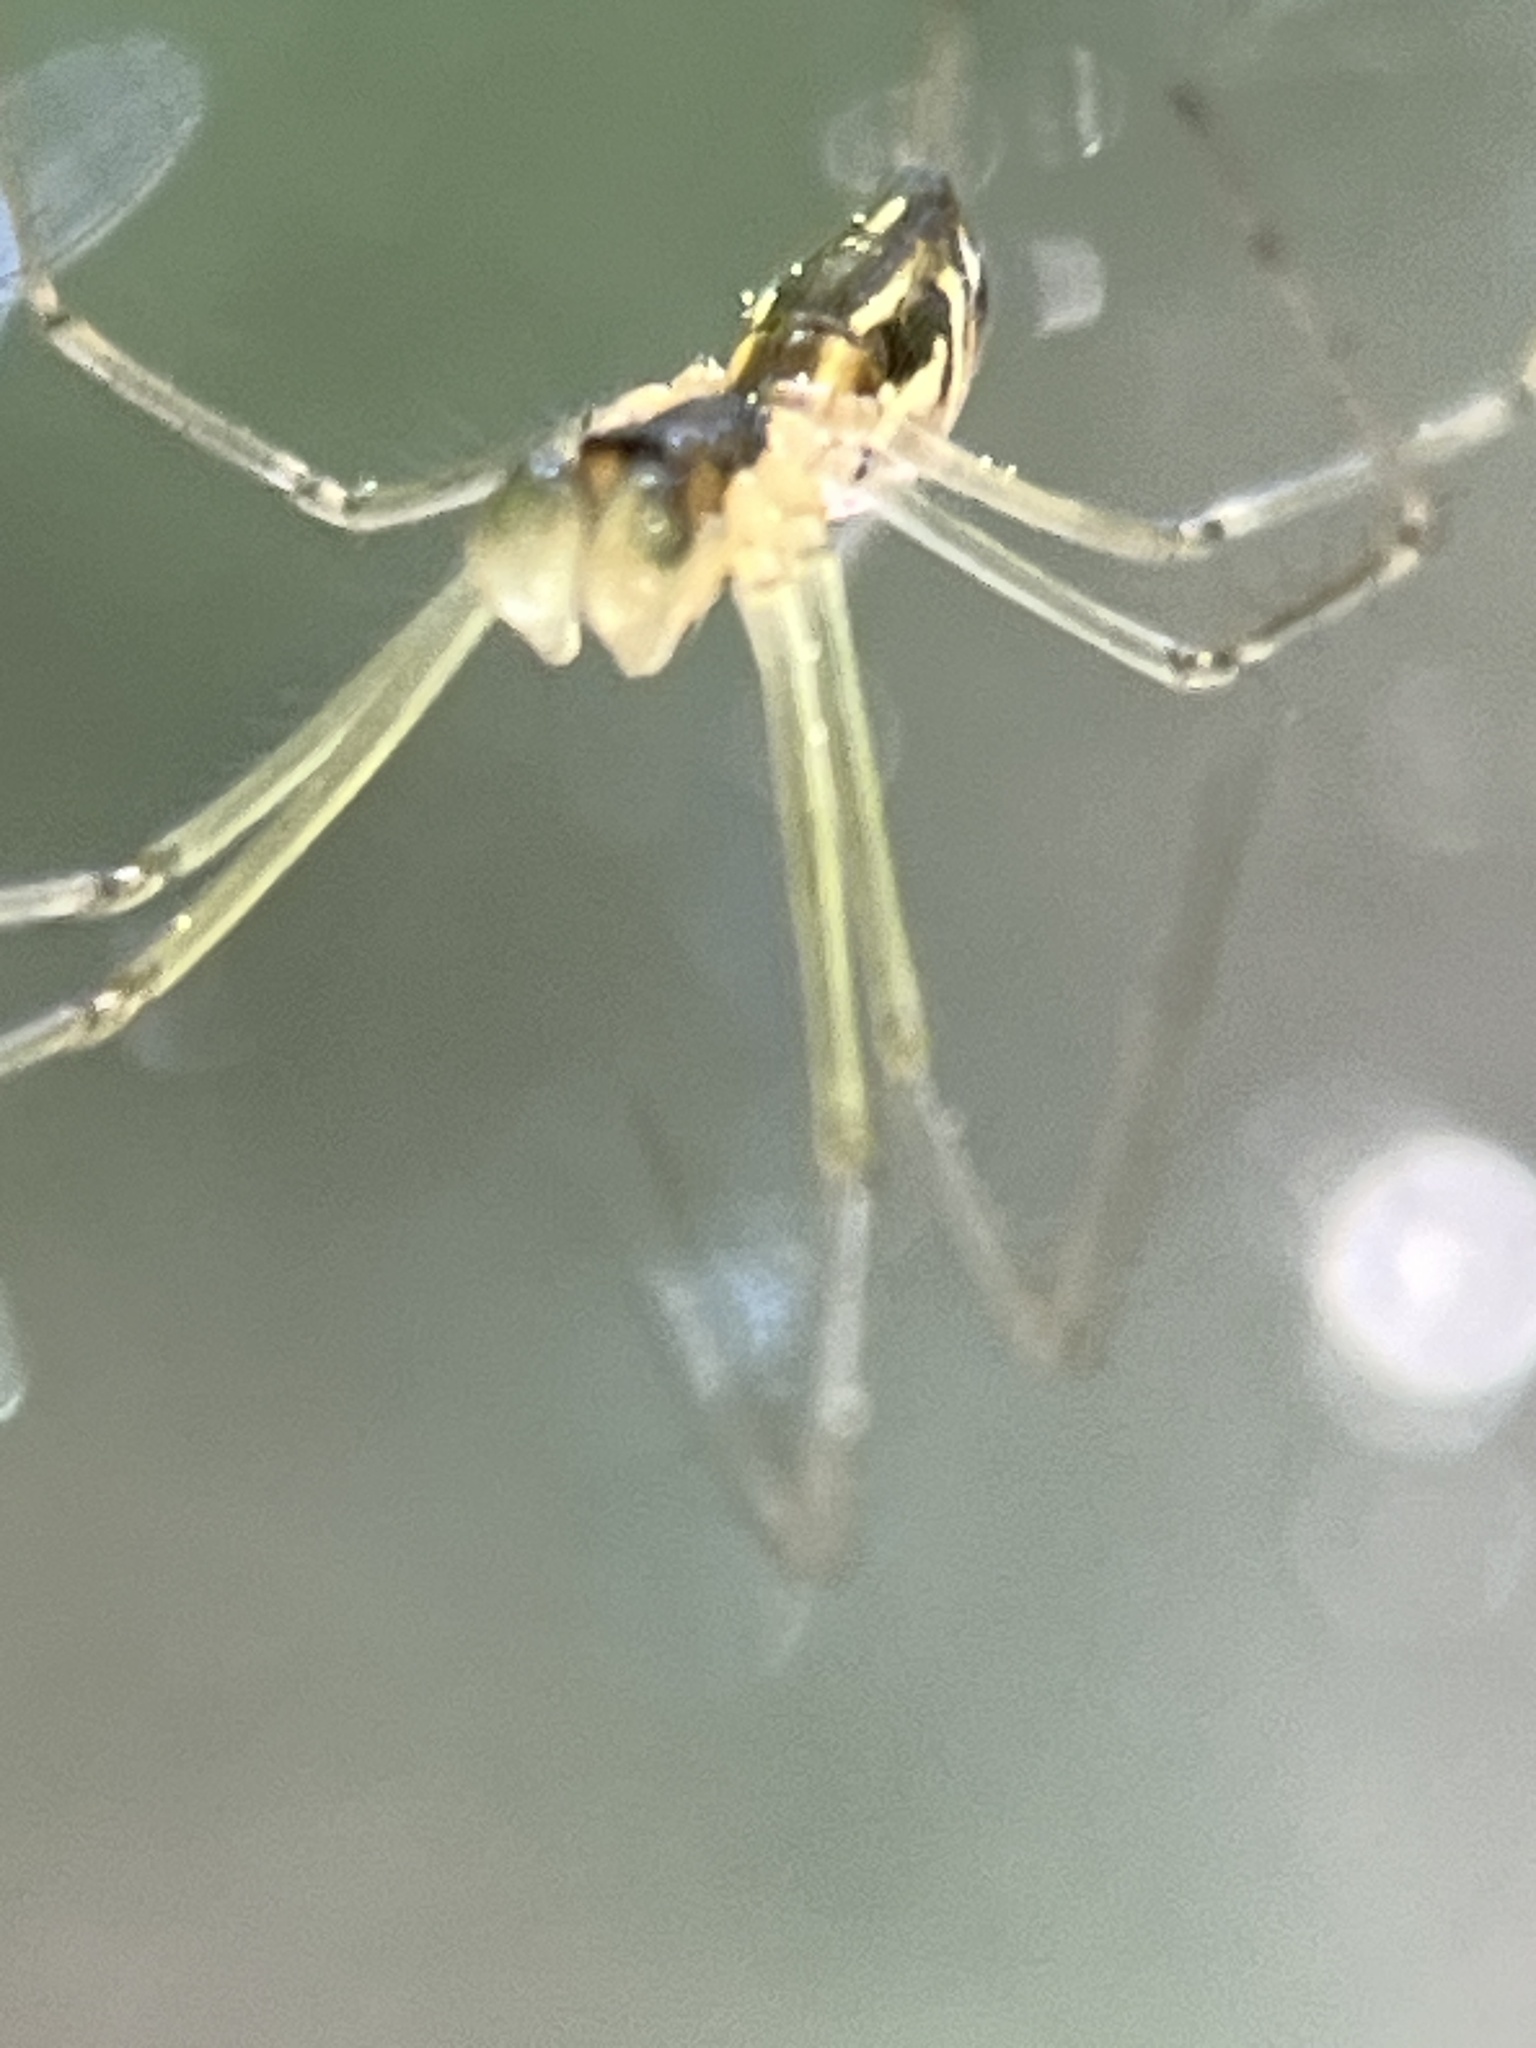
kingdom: Animalia
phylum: Arthropoda
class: Arachnida
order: Araneae
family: Linyphiidae
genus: Neriene
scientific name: Neriene litigiosa
